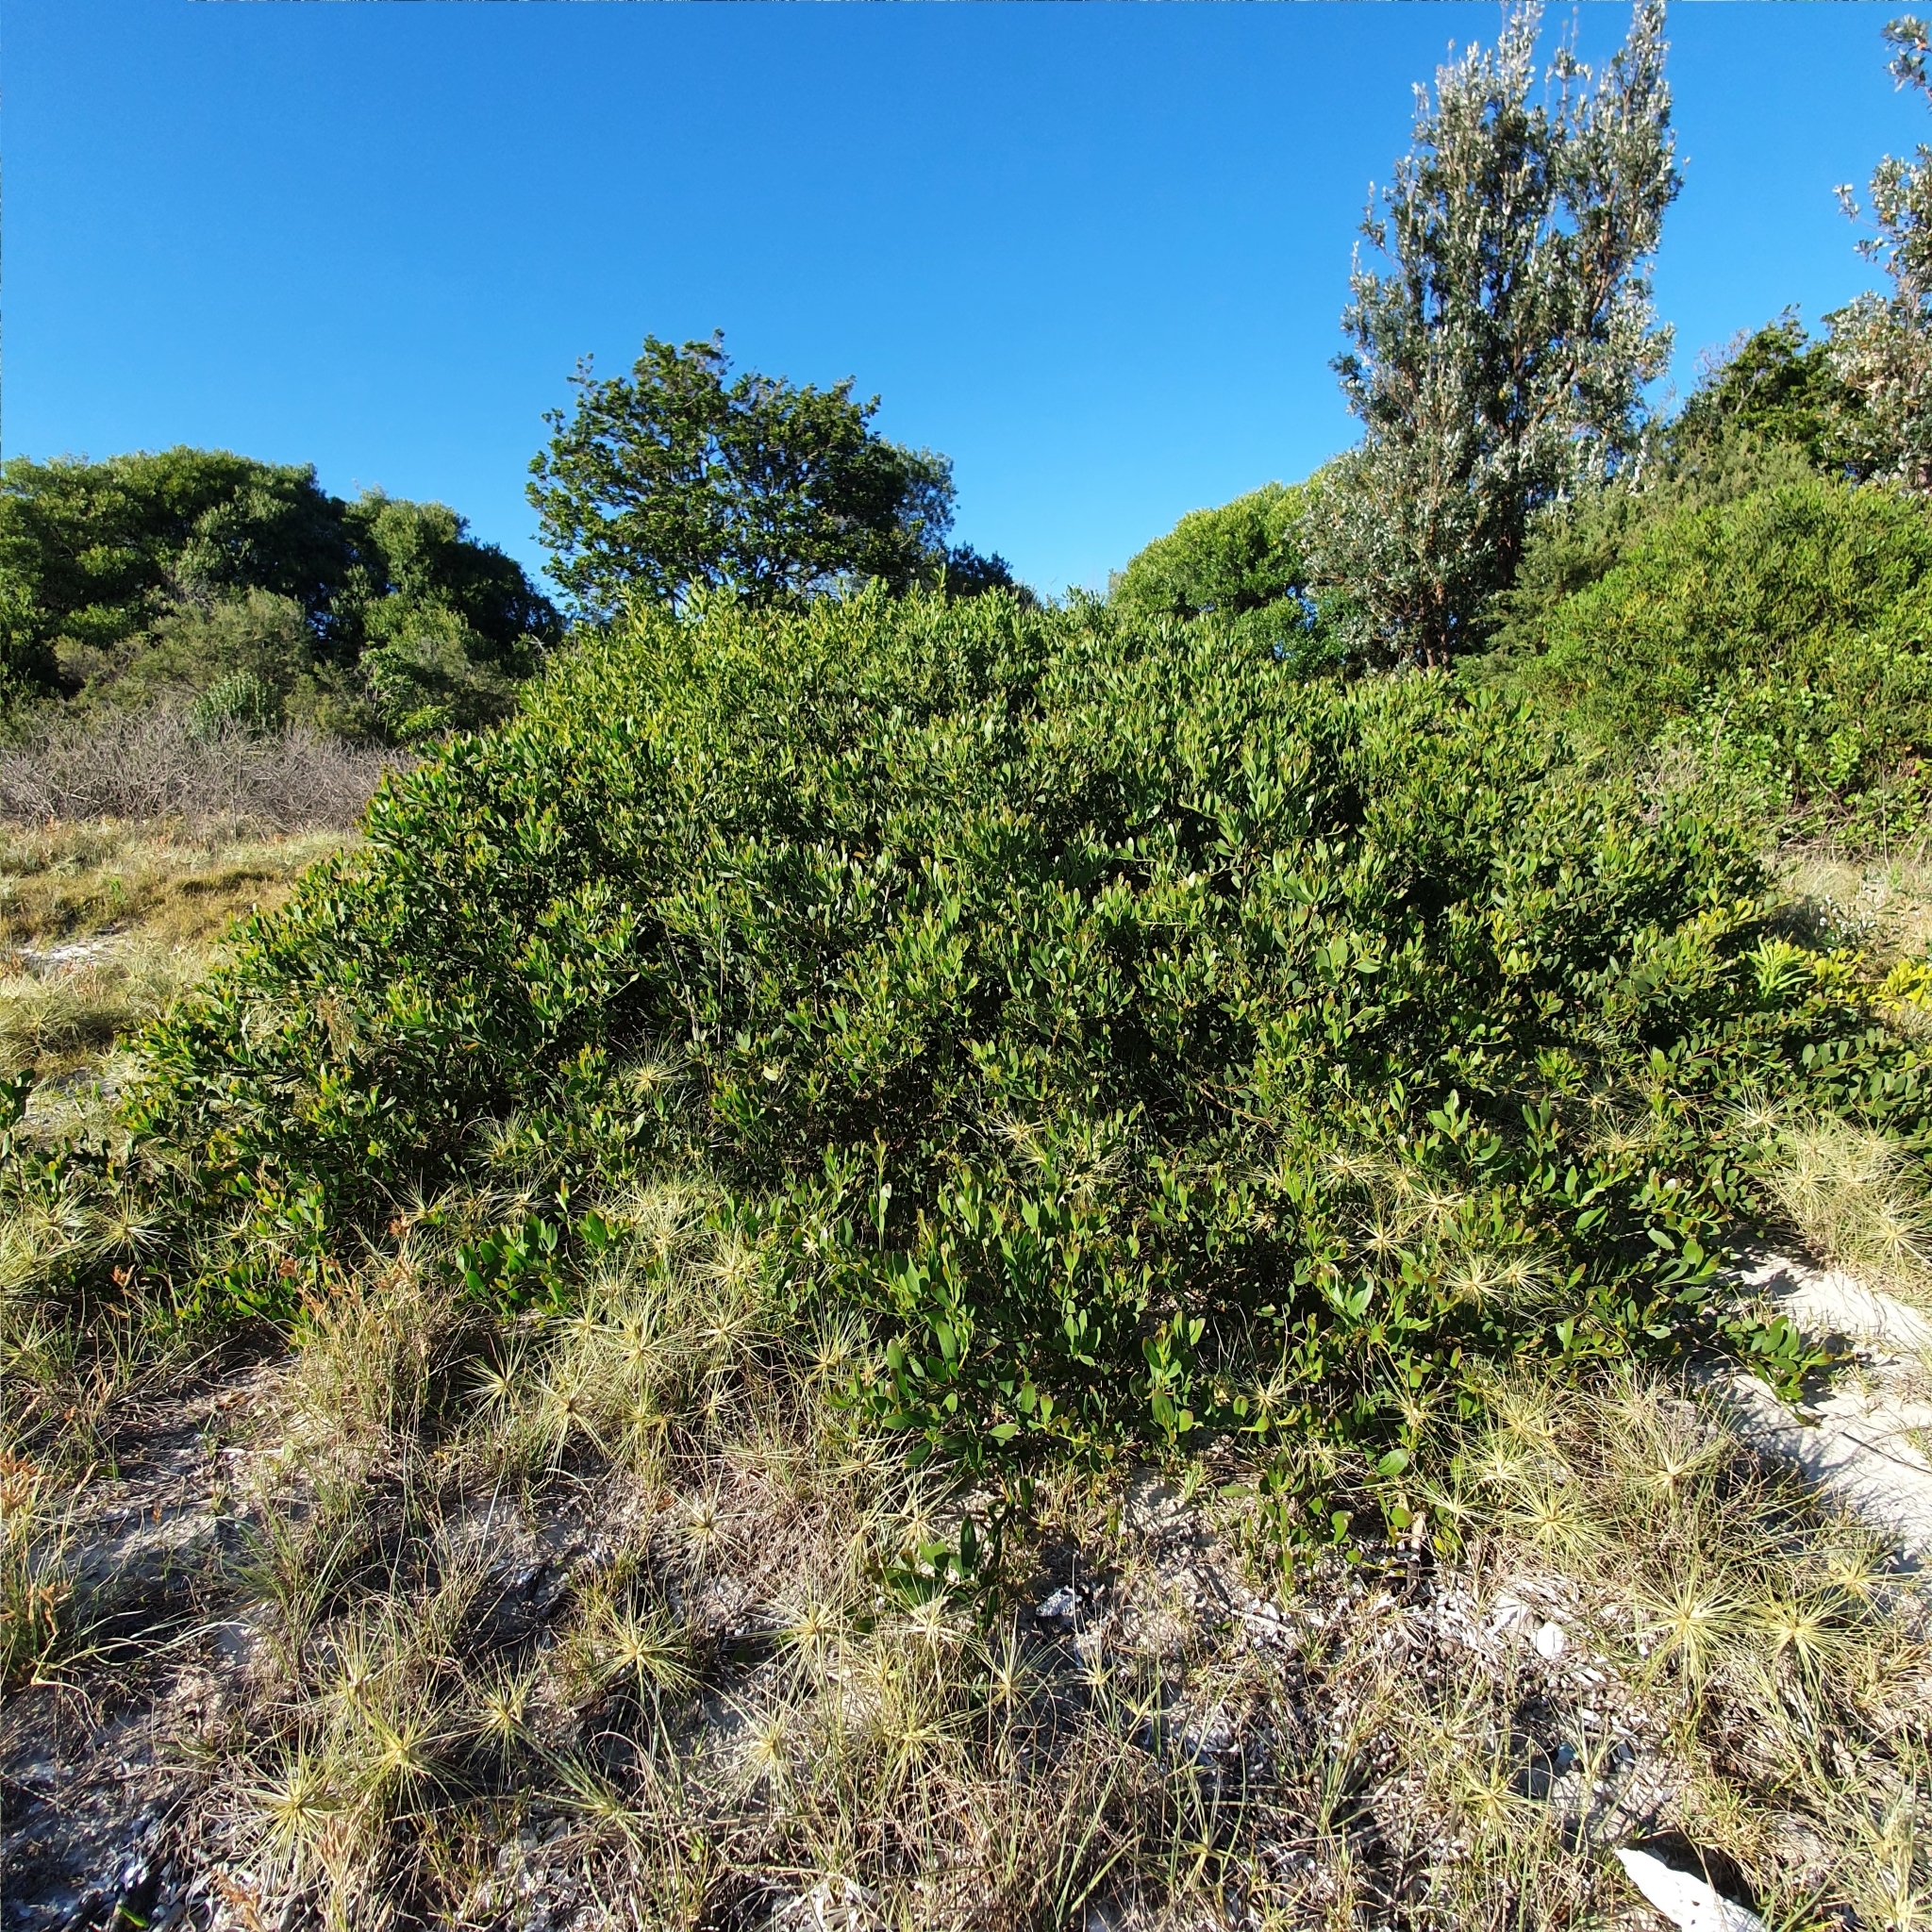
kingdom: Plantae
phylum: Tracheophyta
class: Magnoliopsida
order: Fabales
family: Fabaceae
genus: Acacia
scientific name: Acacia longifolia
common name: Sydney golden wattle
